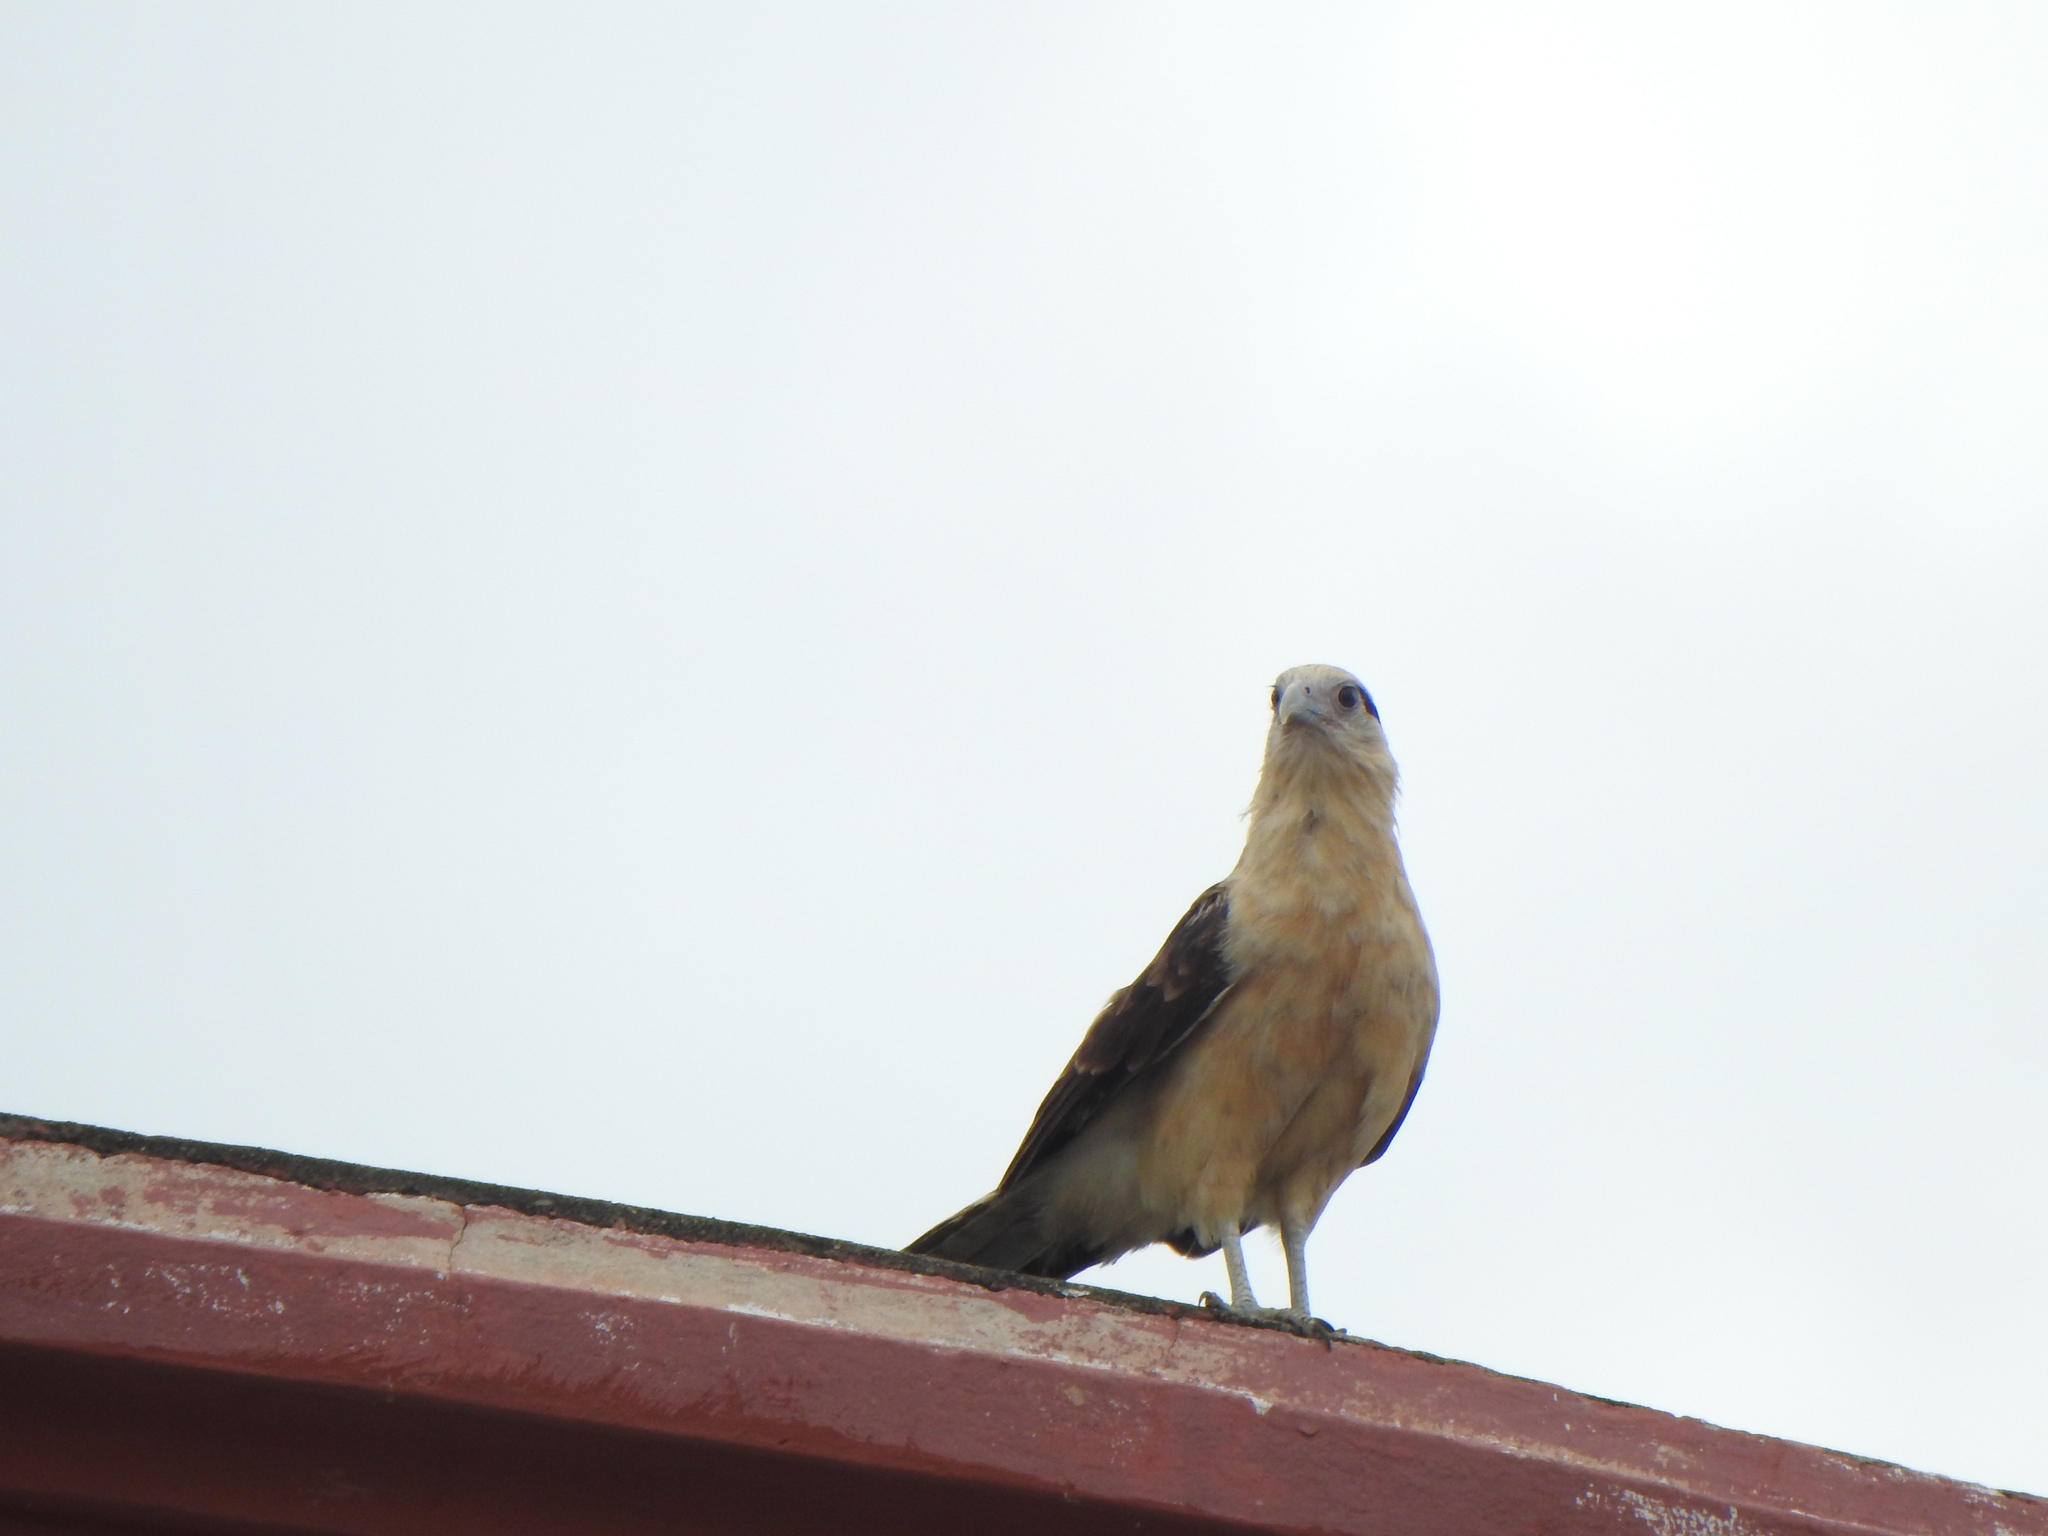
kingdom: Animalia
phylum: Chordata
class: Aves
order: Falconiformes
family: Falconidae
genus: Daptrius
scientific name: Daptrius
